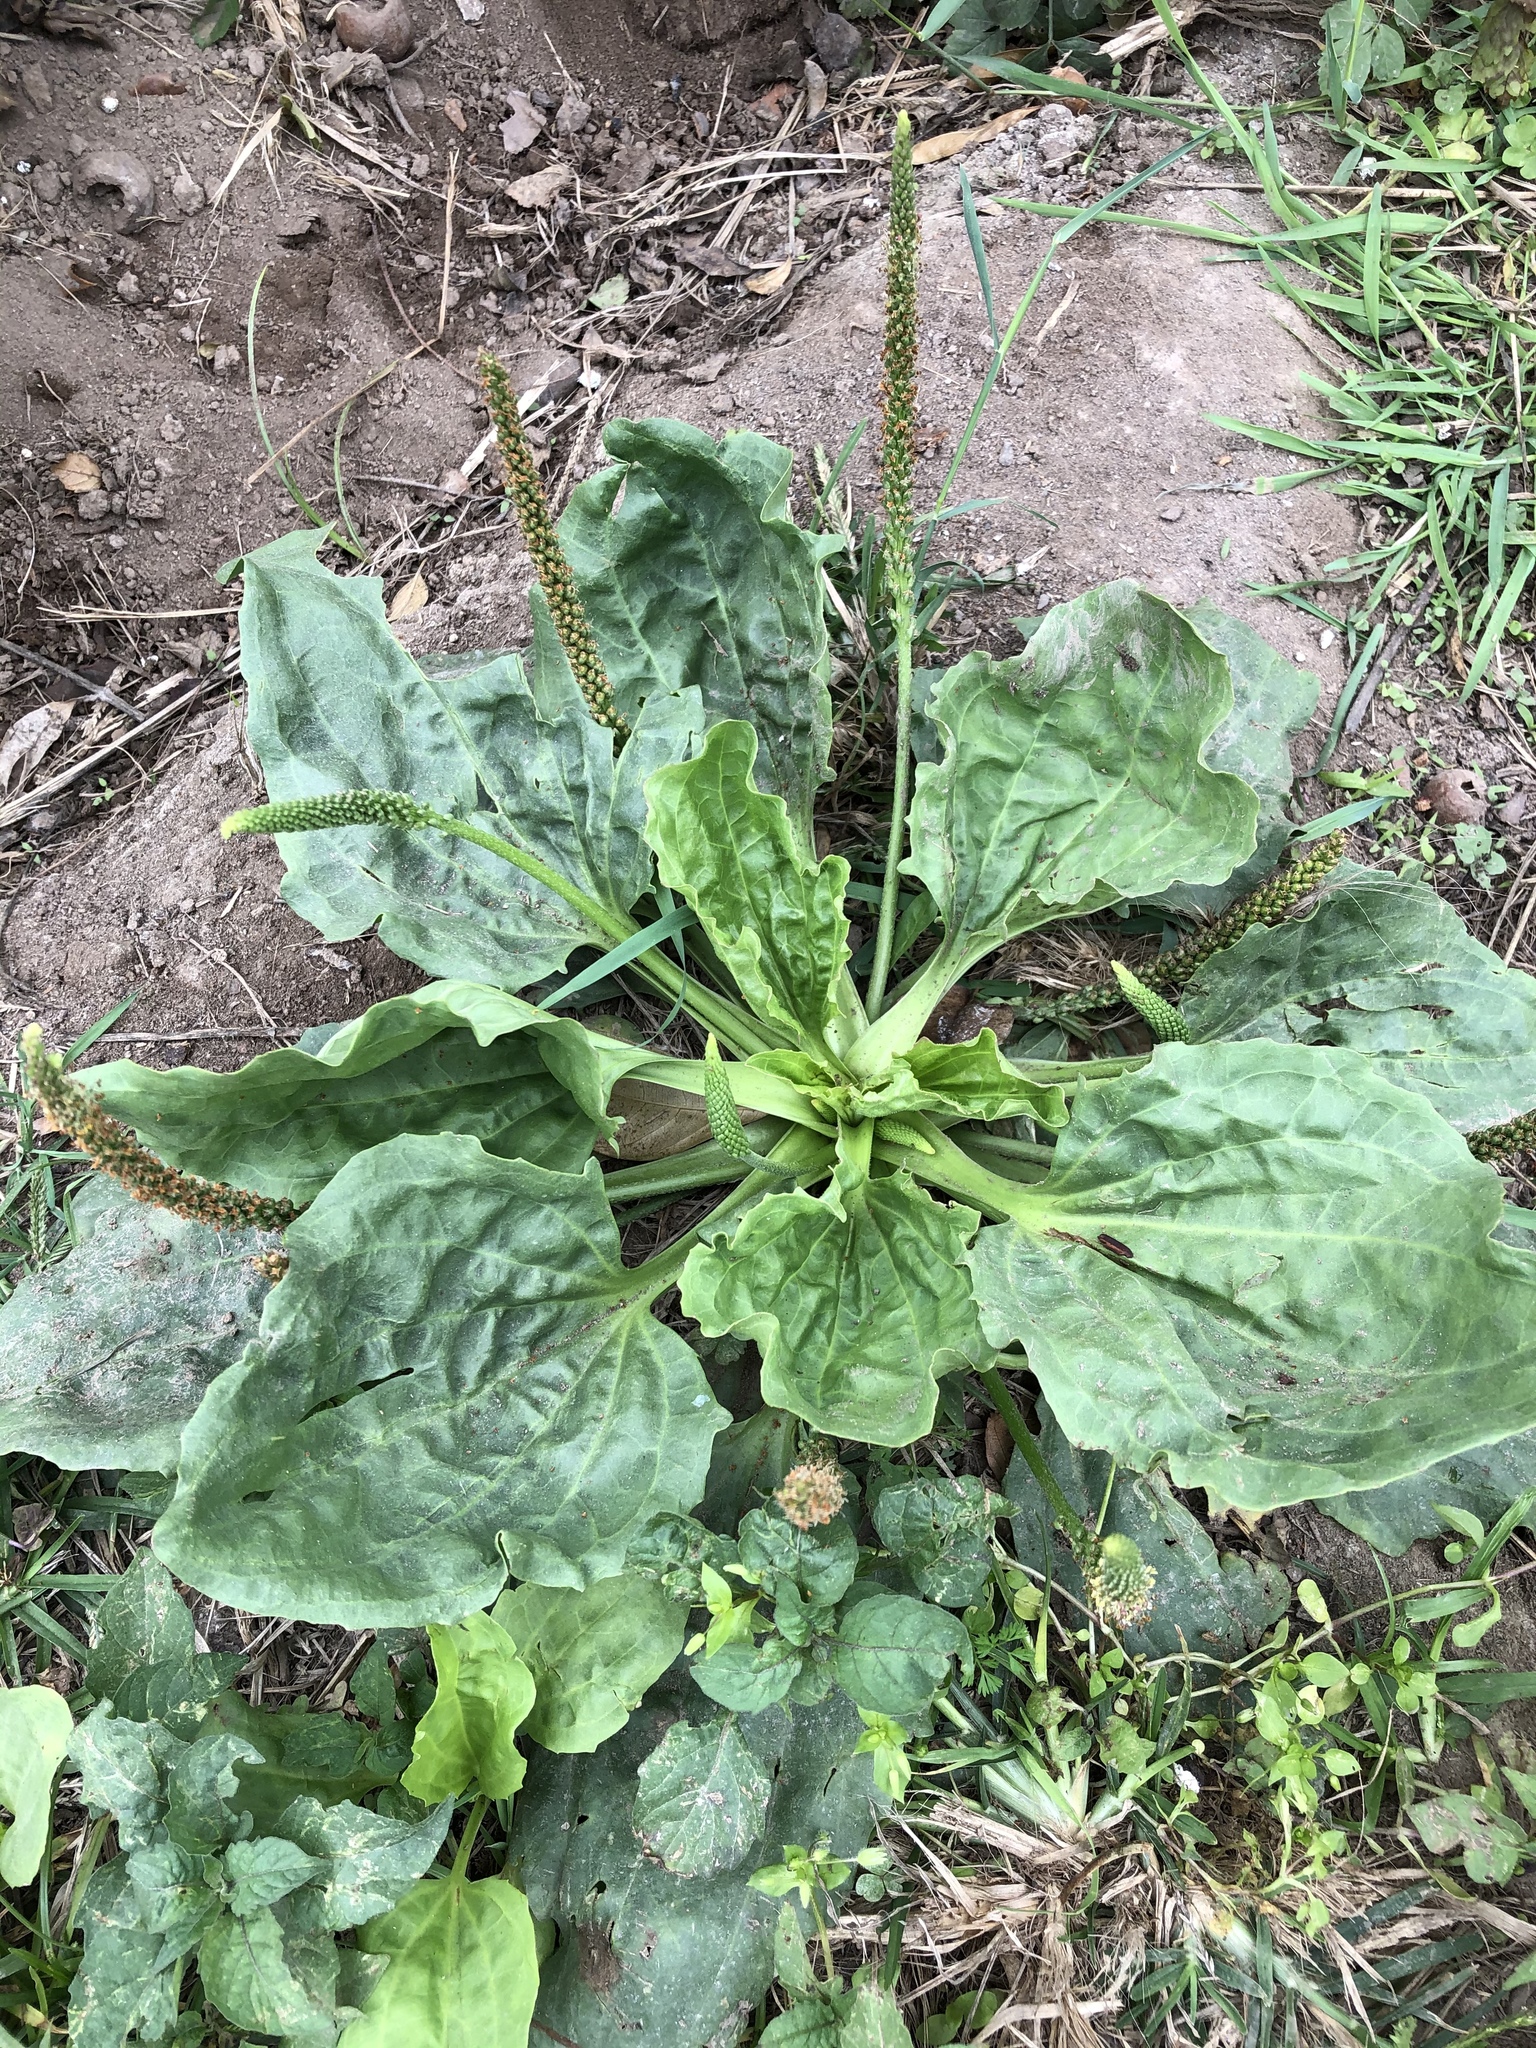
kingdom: Plantae
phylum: Tracheophyta
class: Magnoliopsida
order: Lamiales
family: Plantaginaceae
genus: Plantago
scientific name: Plantago major
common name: Common plantain
